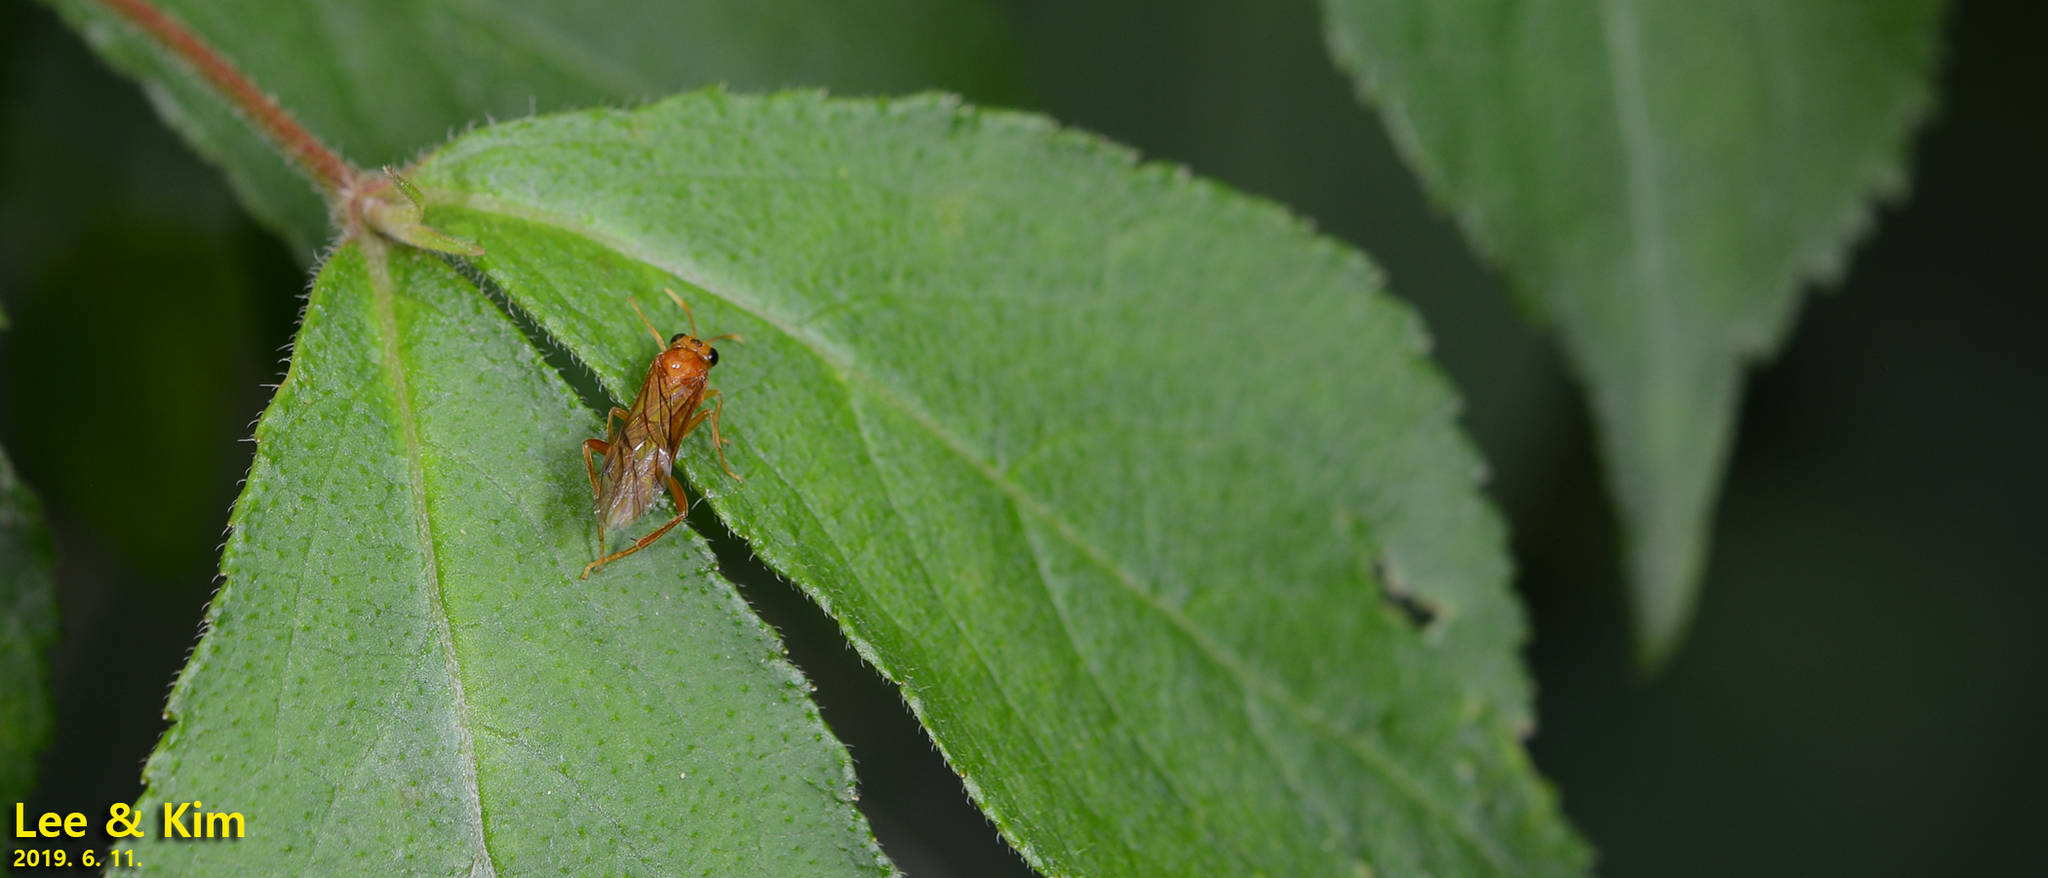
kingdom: Animalia
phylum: Arthropoda
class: Insecta
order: Hymenoptera
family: Tenthredinidae
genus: Nesotaxonus
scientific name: Nesotaxonus fulvus
